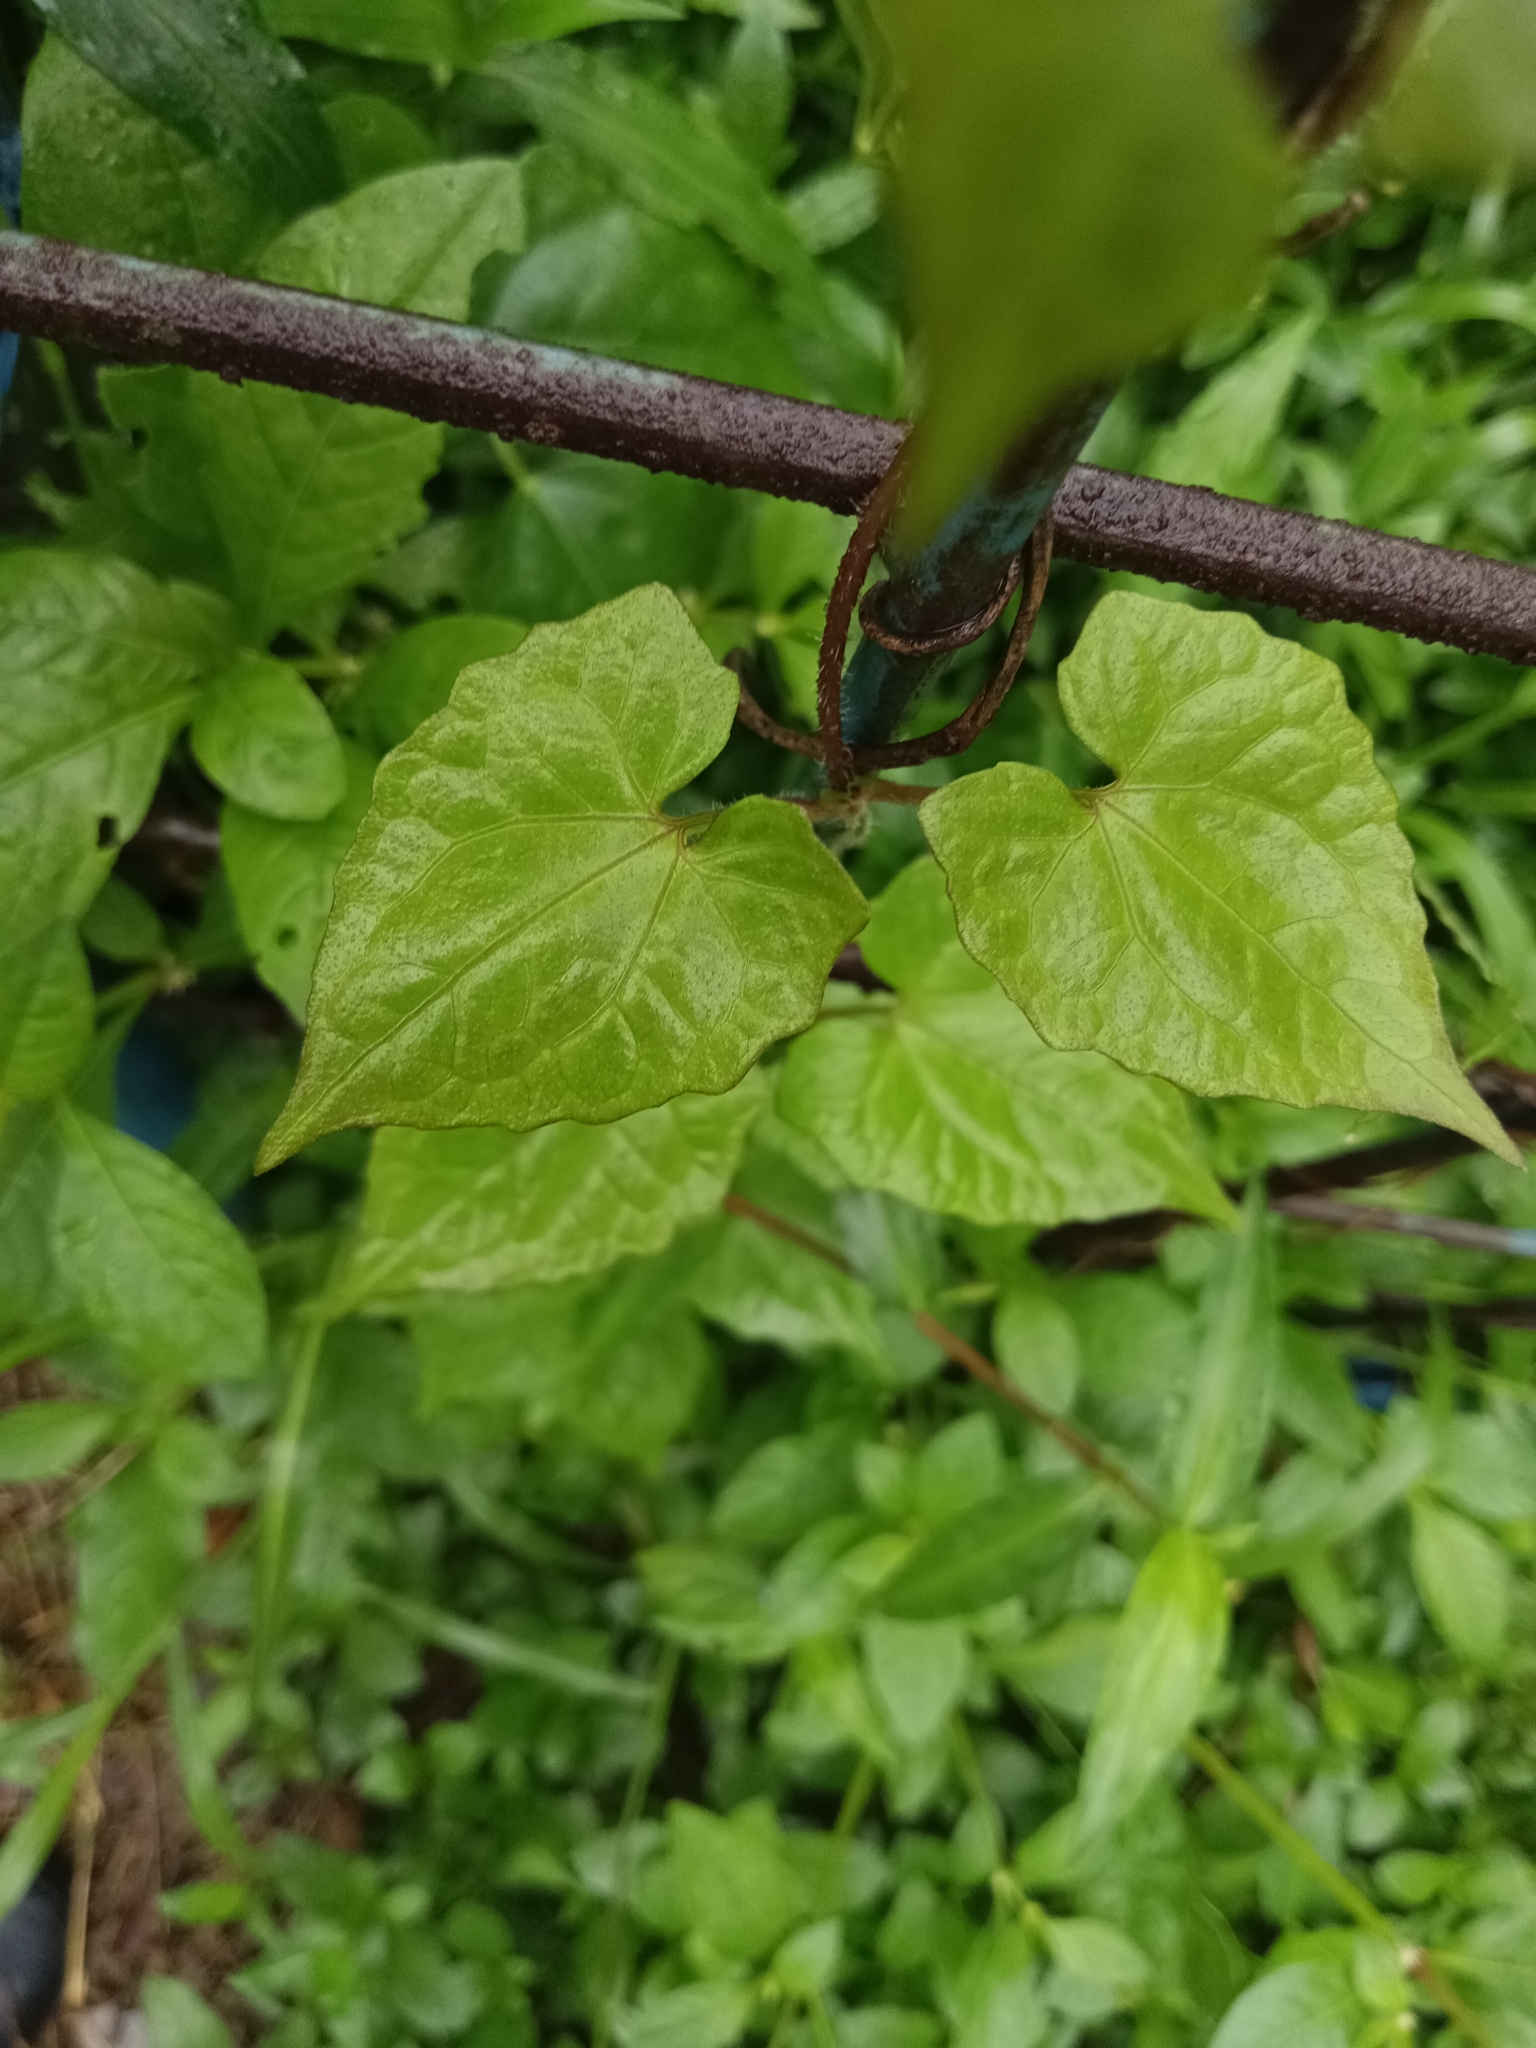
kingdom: Plantae
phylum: Tracheophyta
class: Magnoliopsida
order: Asterales
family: Asteraceae
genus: Mikania
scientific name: Mikania micrantha
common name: Mile-a-minute
